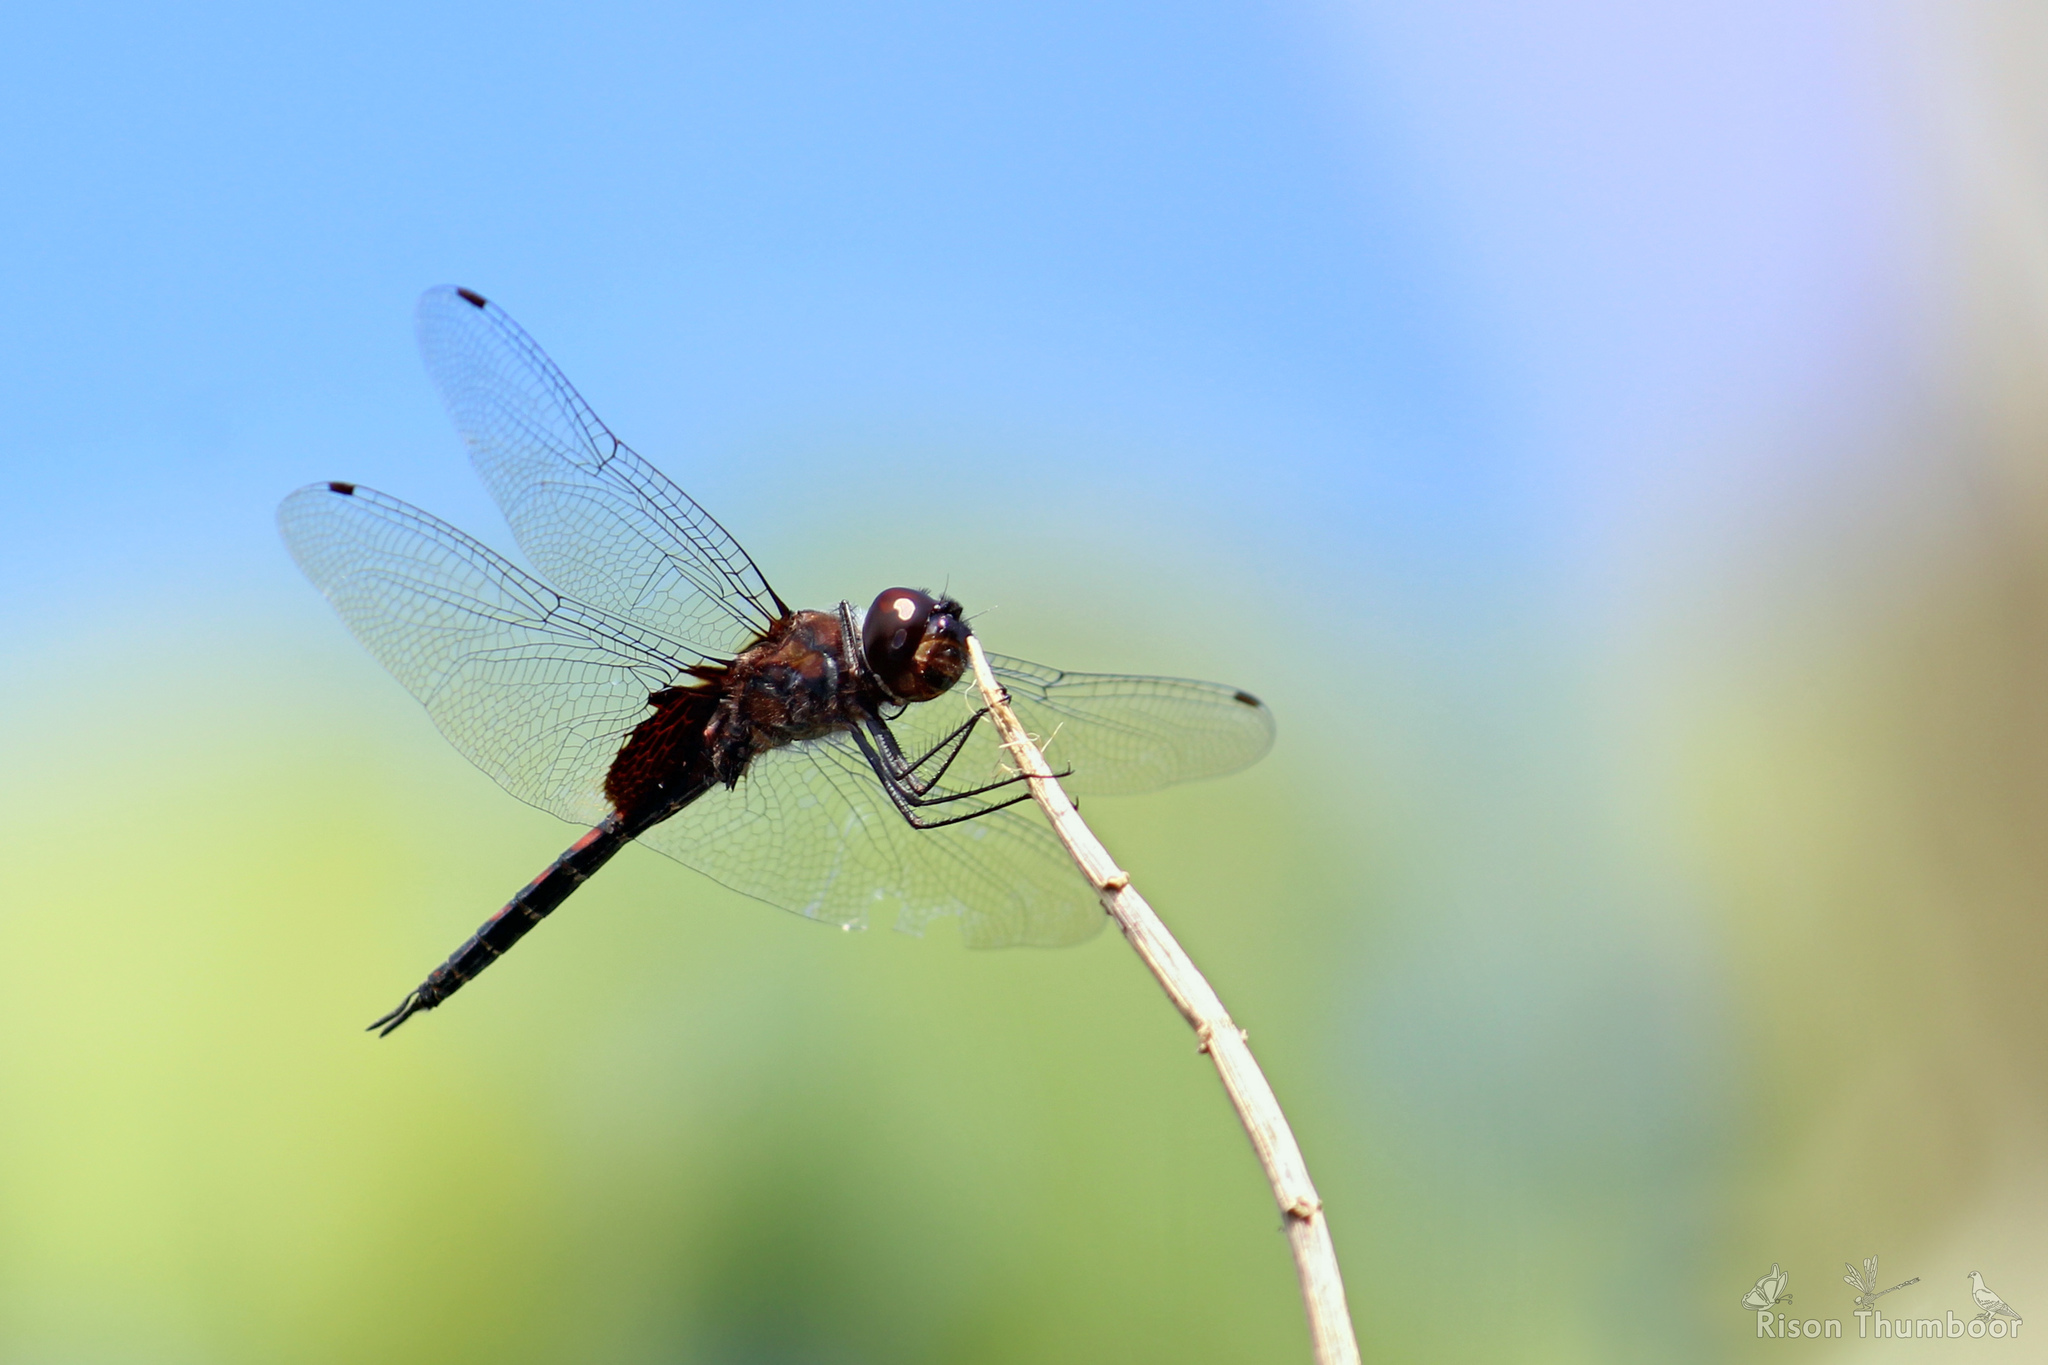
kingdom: Animalia
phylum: Arthropoda
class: Insecta
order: Odonata
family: Libellulidae
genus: Tramea
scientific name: Tramea limbata
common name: Ferruginous glider
